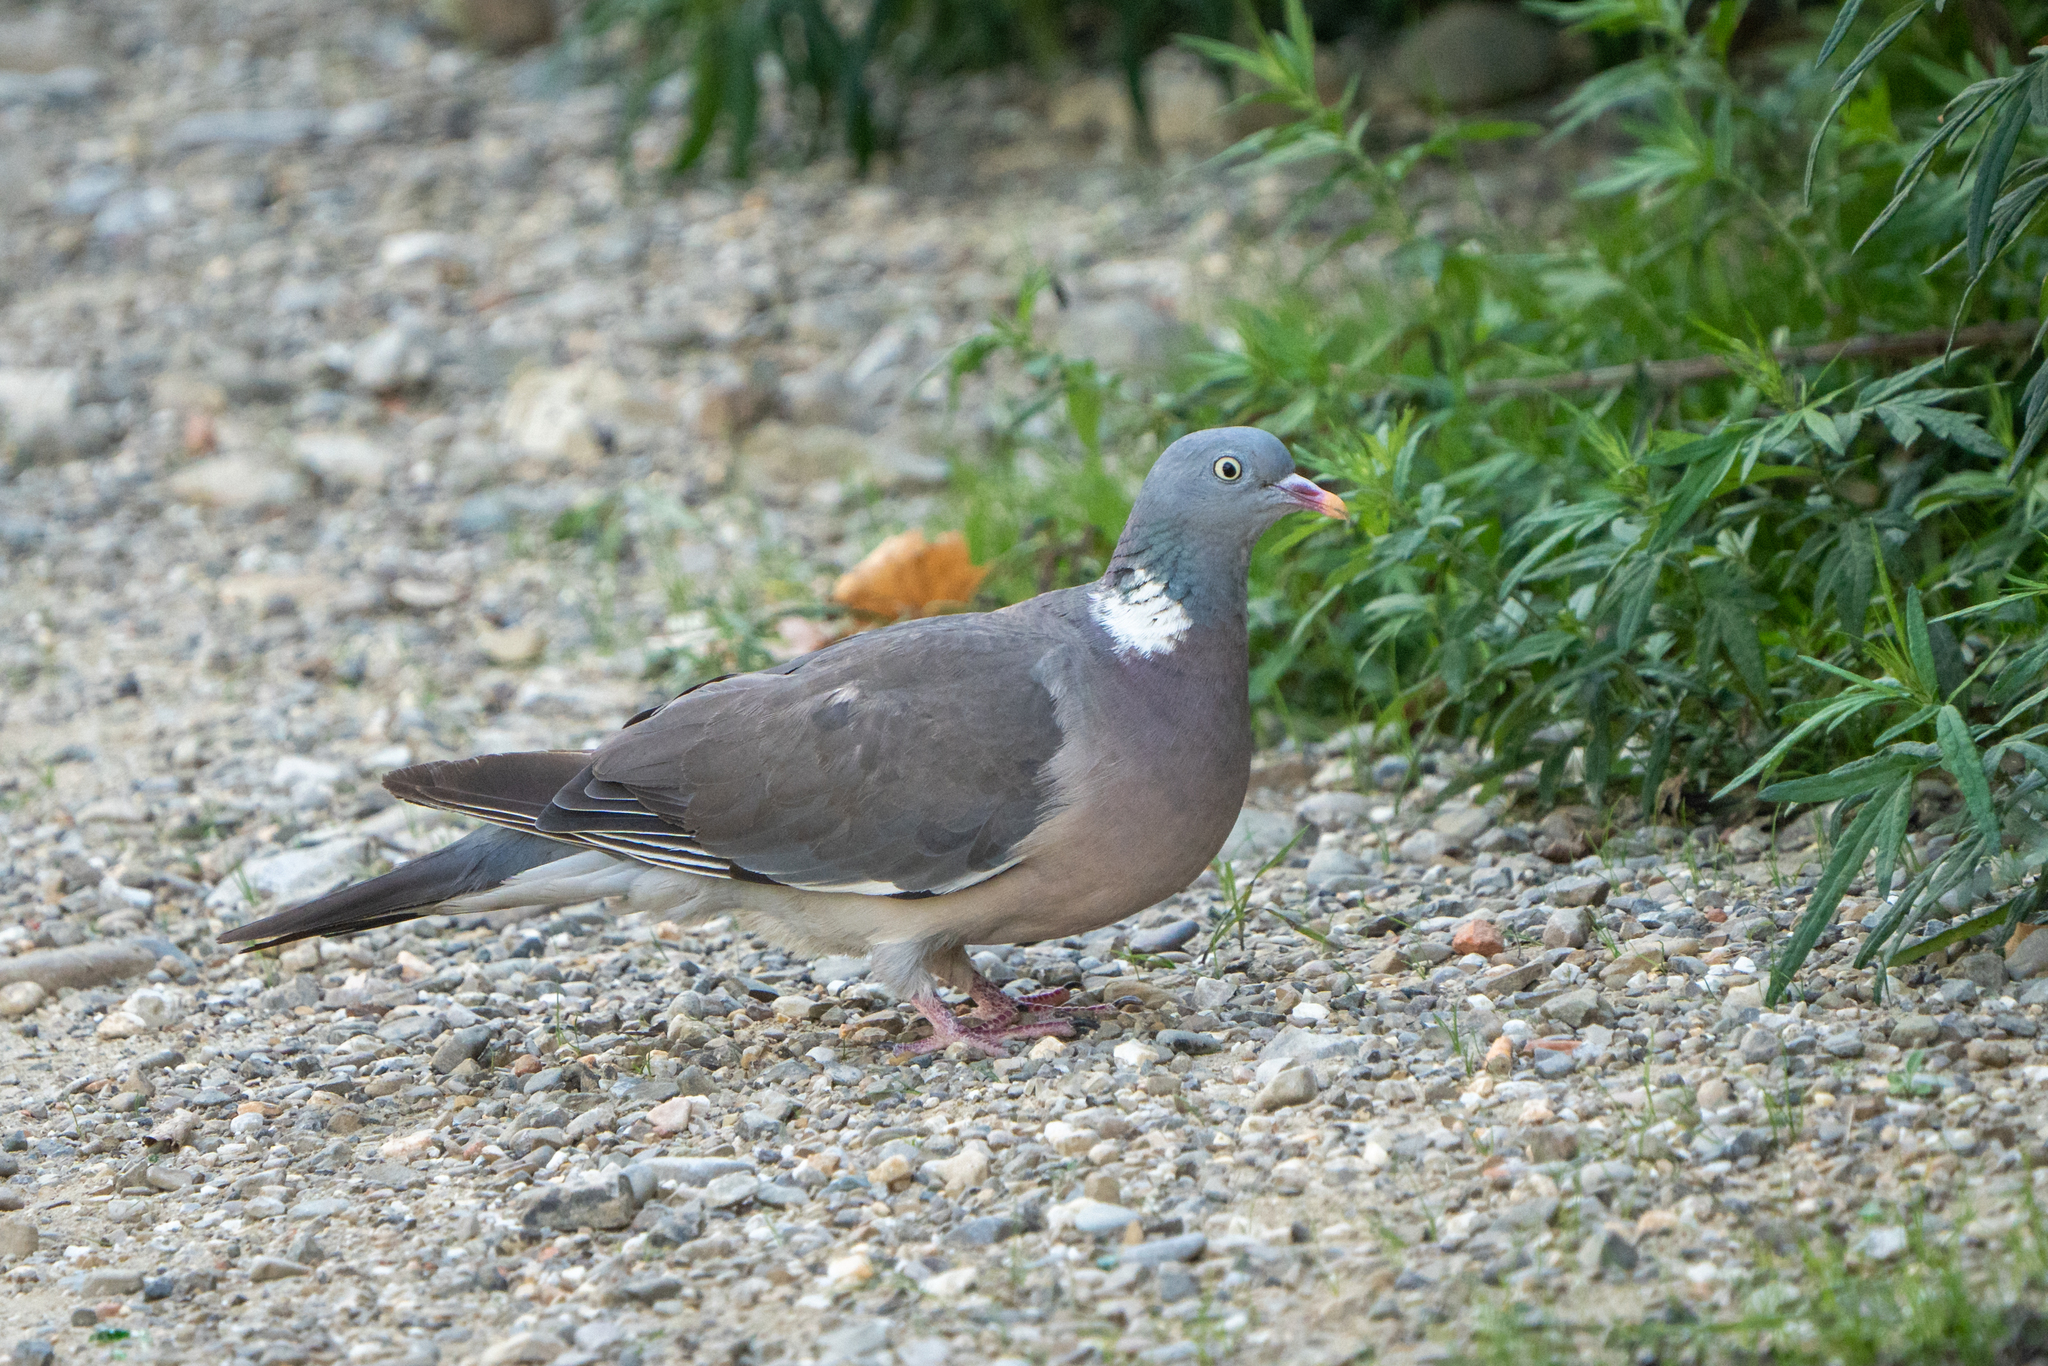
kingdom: Animalia
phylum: Chordata
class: Aves
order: Columbiformes
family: Columbidae
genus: Columba
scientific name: Columba palumbus
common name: Common wood pigeon
